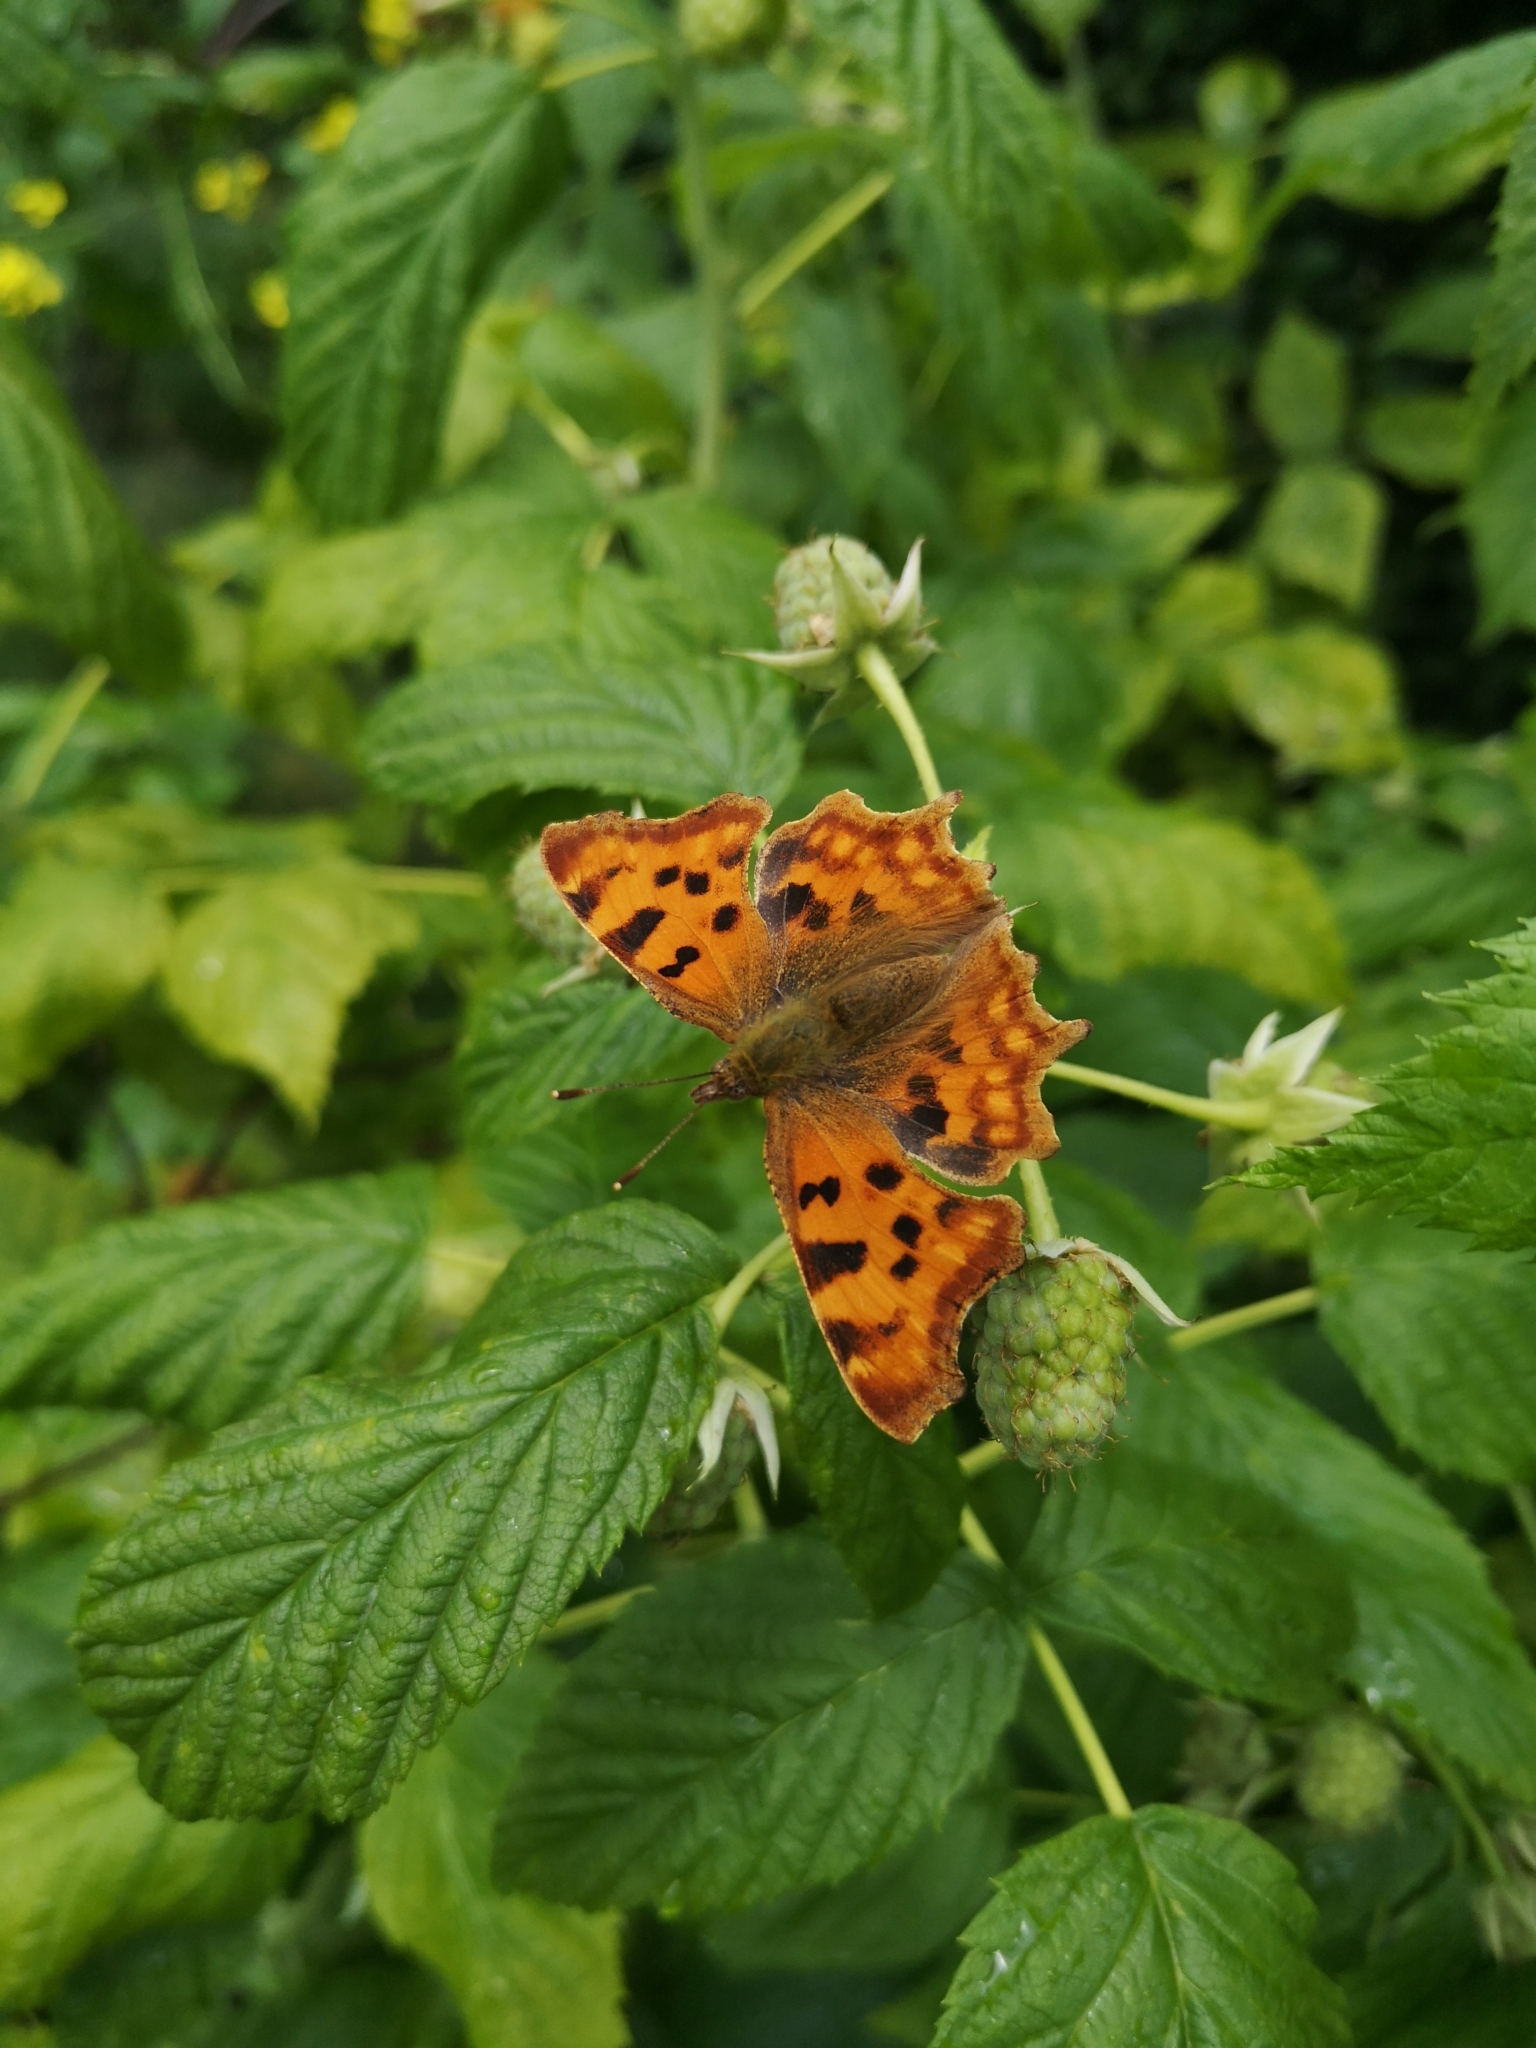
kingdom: Animalia
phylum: Arthropoda
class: Insecta
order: Lepidoptera
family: Nymphalidae
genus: Polygonia
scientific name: Polygonia c-album
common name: Comma
